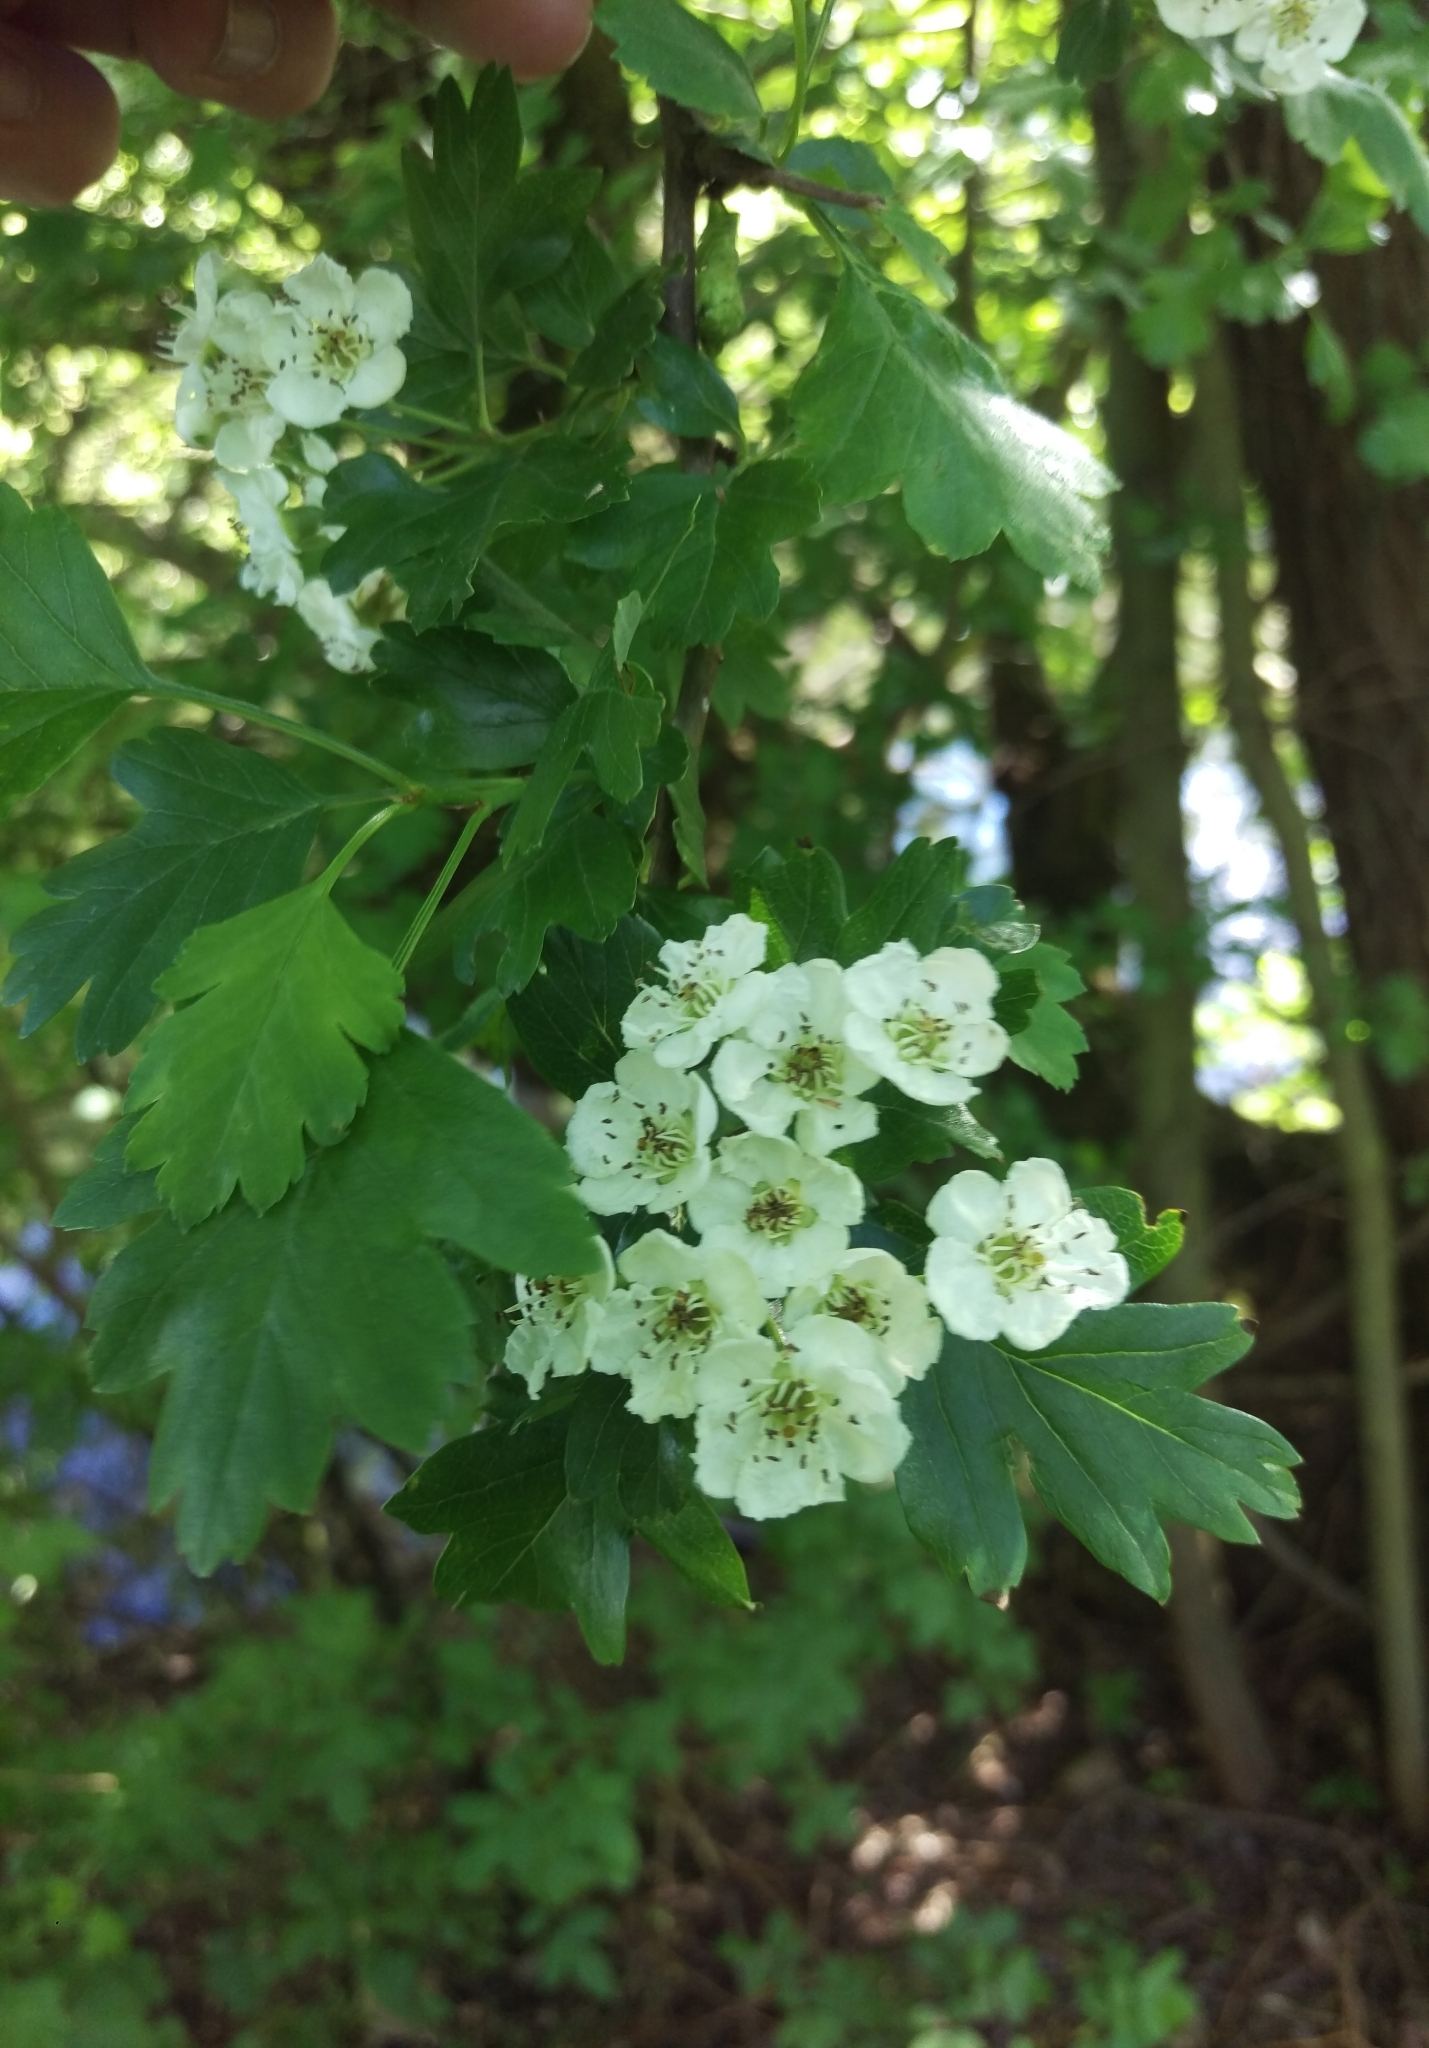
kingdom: Plantae
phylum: Tracheophyta
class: Magnoliopsida
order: Rosales
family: Rosaceae
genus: Crataegus
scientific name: Crataegus monogyna
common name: Hawthorn
